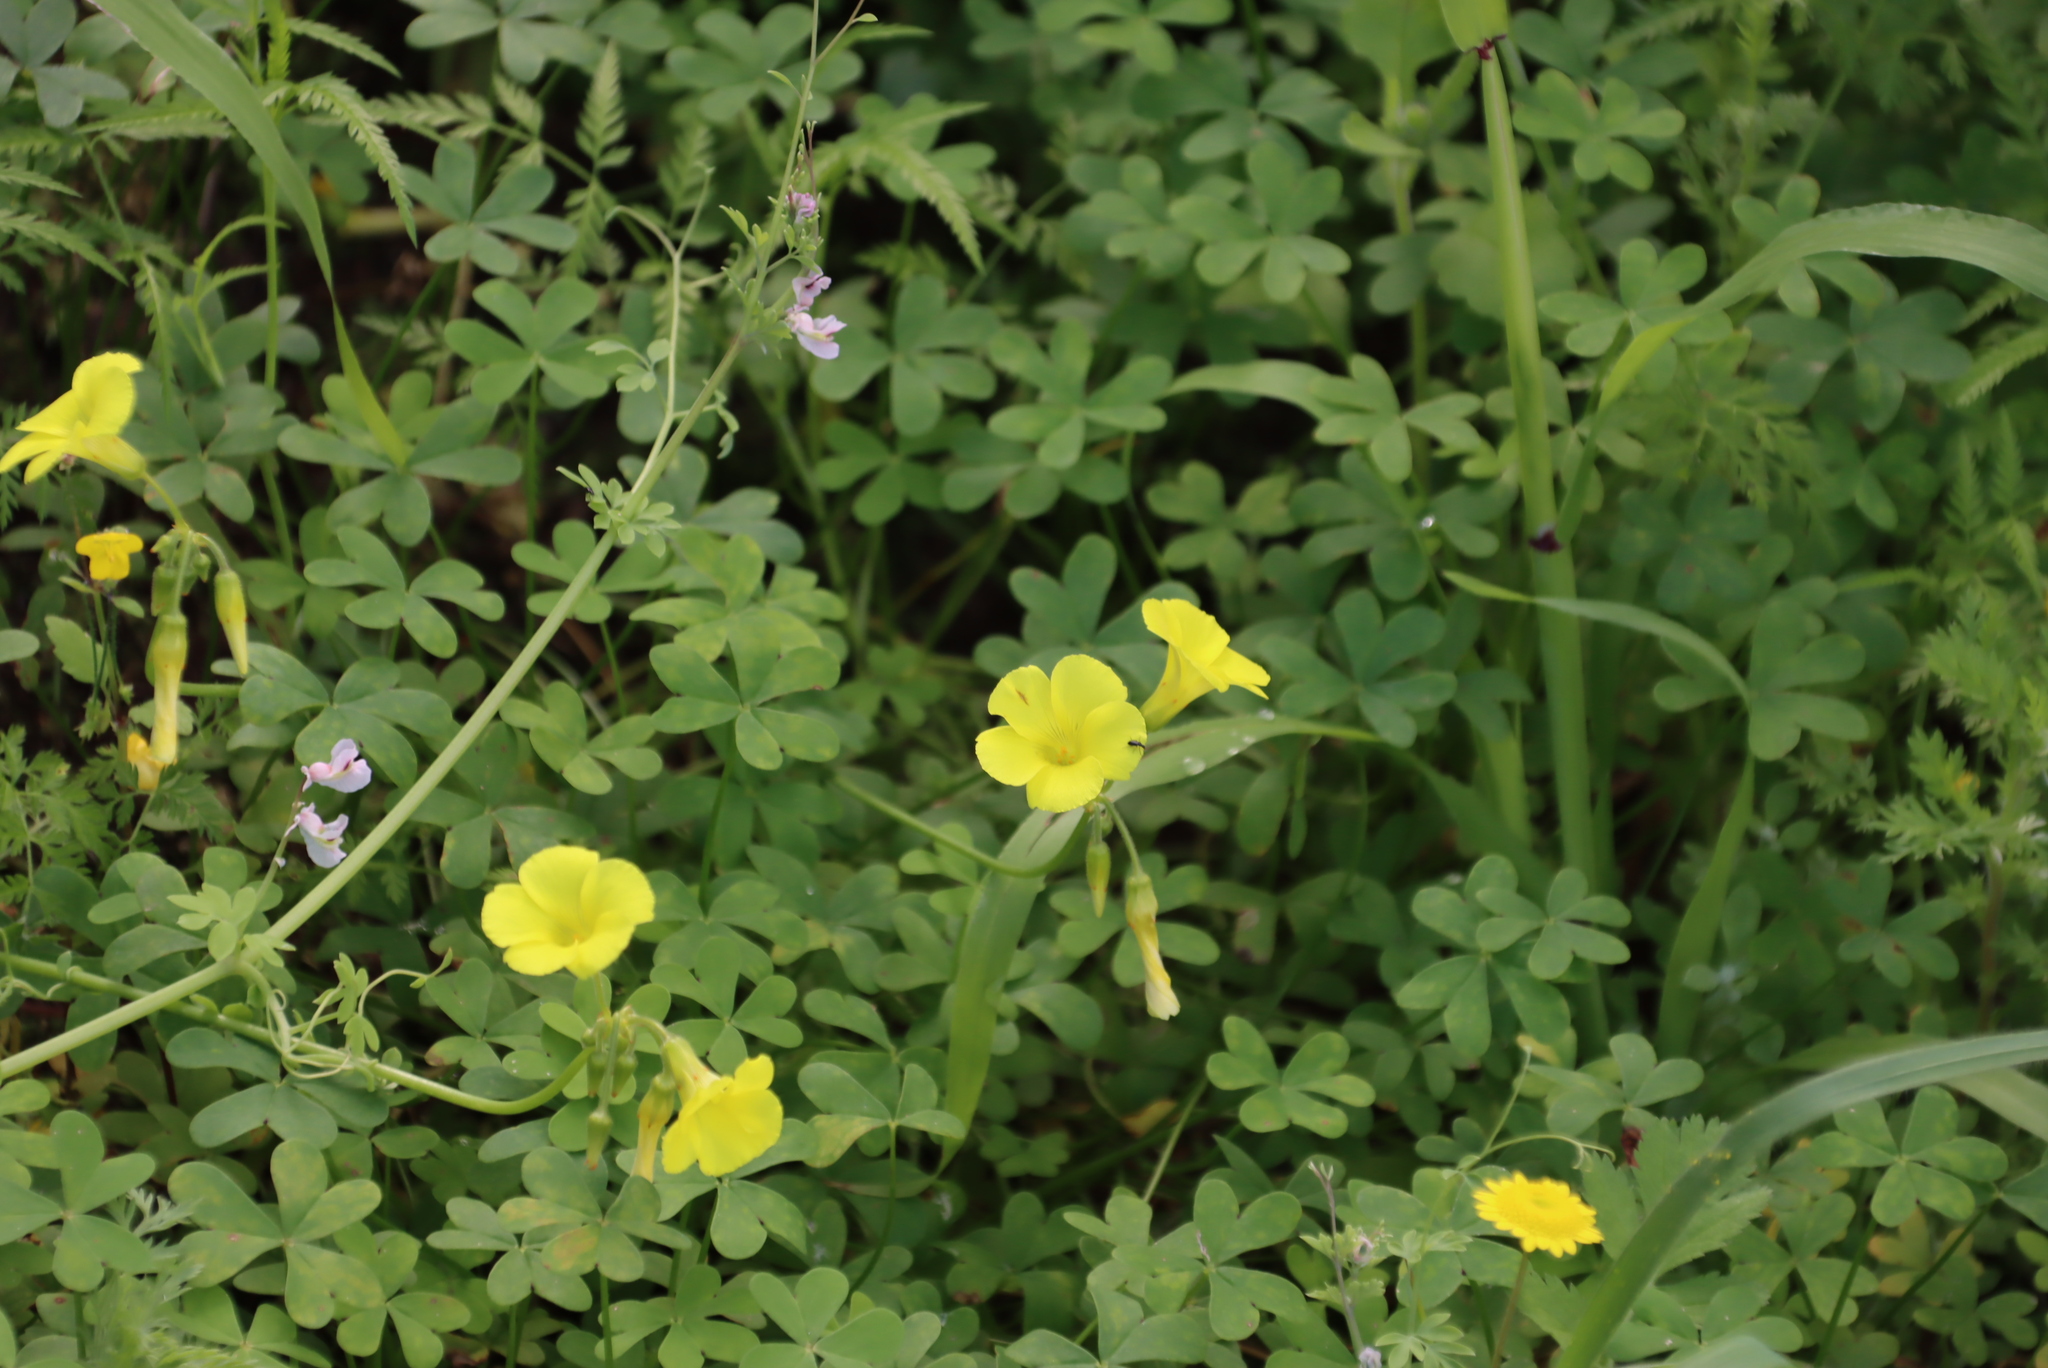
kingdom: Plantae
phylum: Tracheophyta
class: Magnoliopsida
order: Oxalidales
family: Oxalidaceae
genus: Oxalis
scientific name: Oxalis pes-caprae
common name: Bermuda-buttercup
